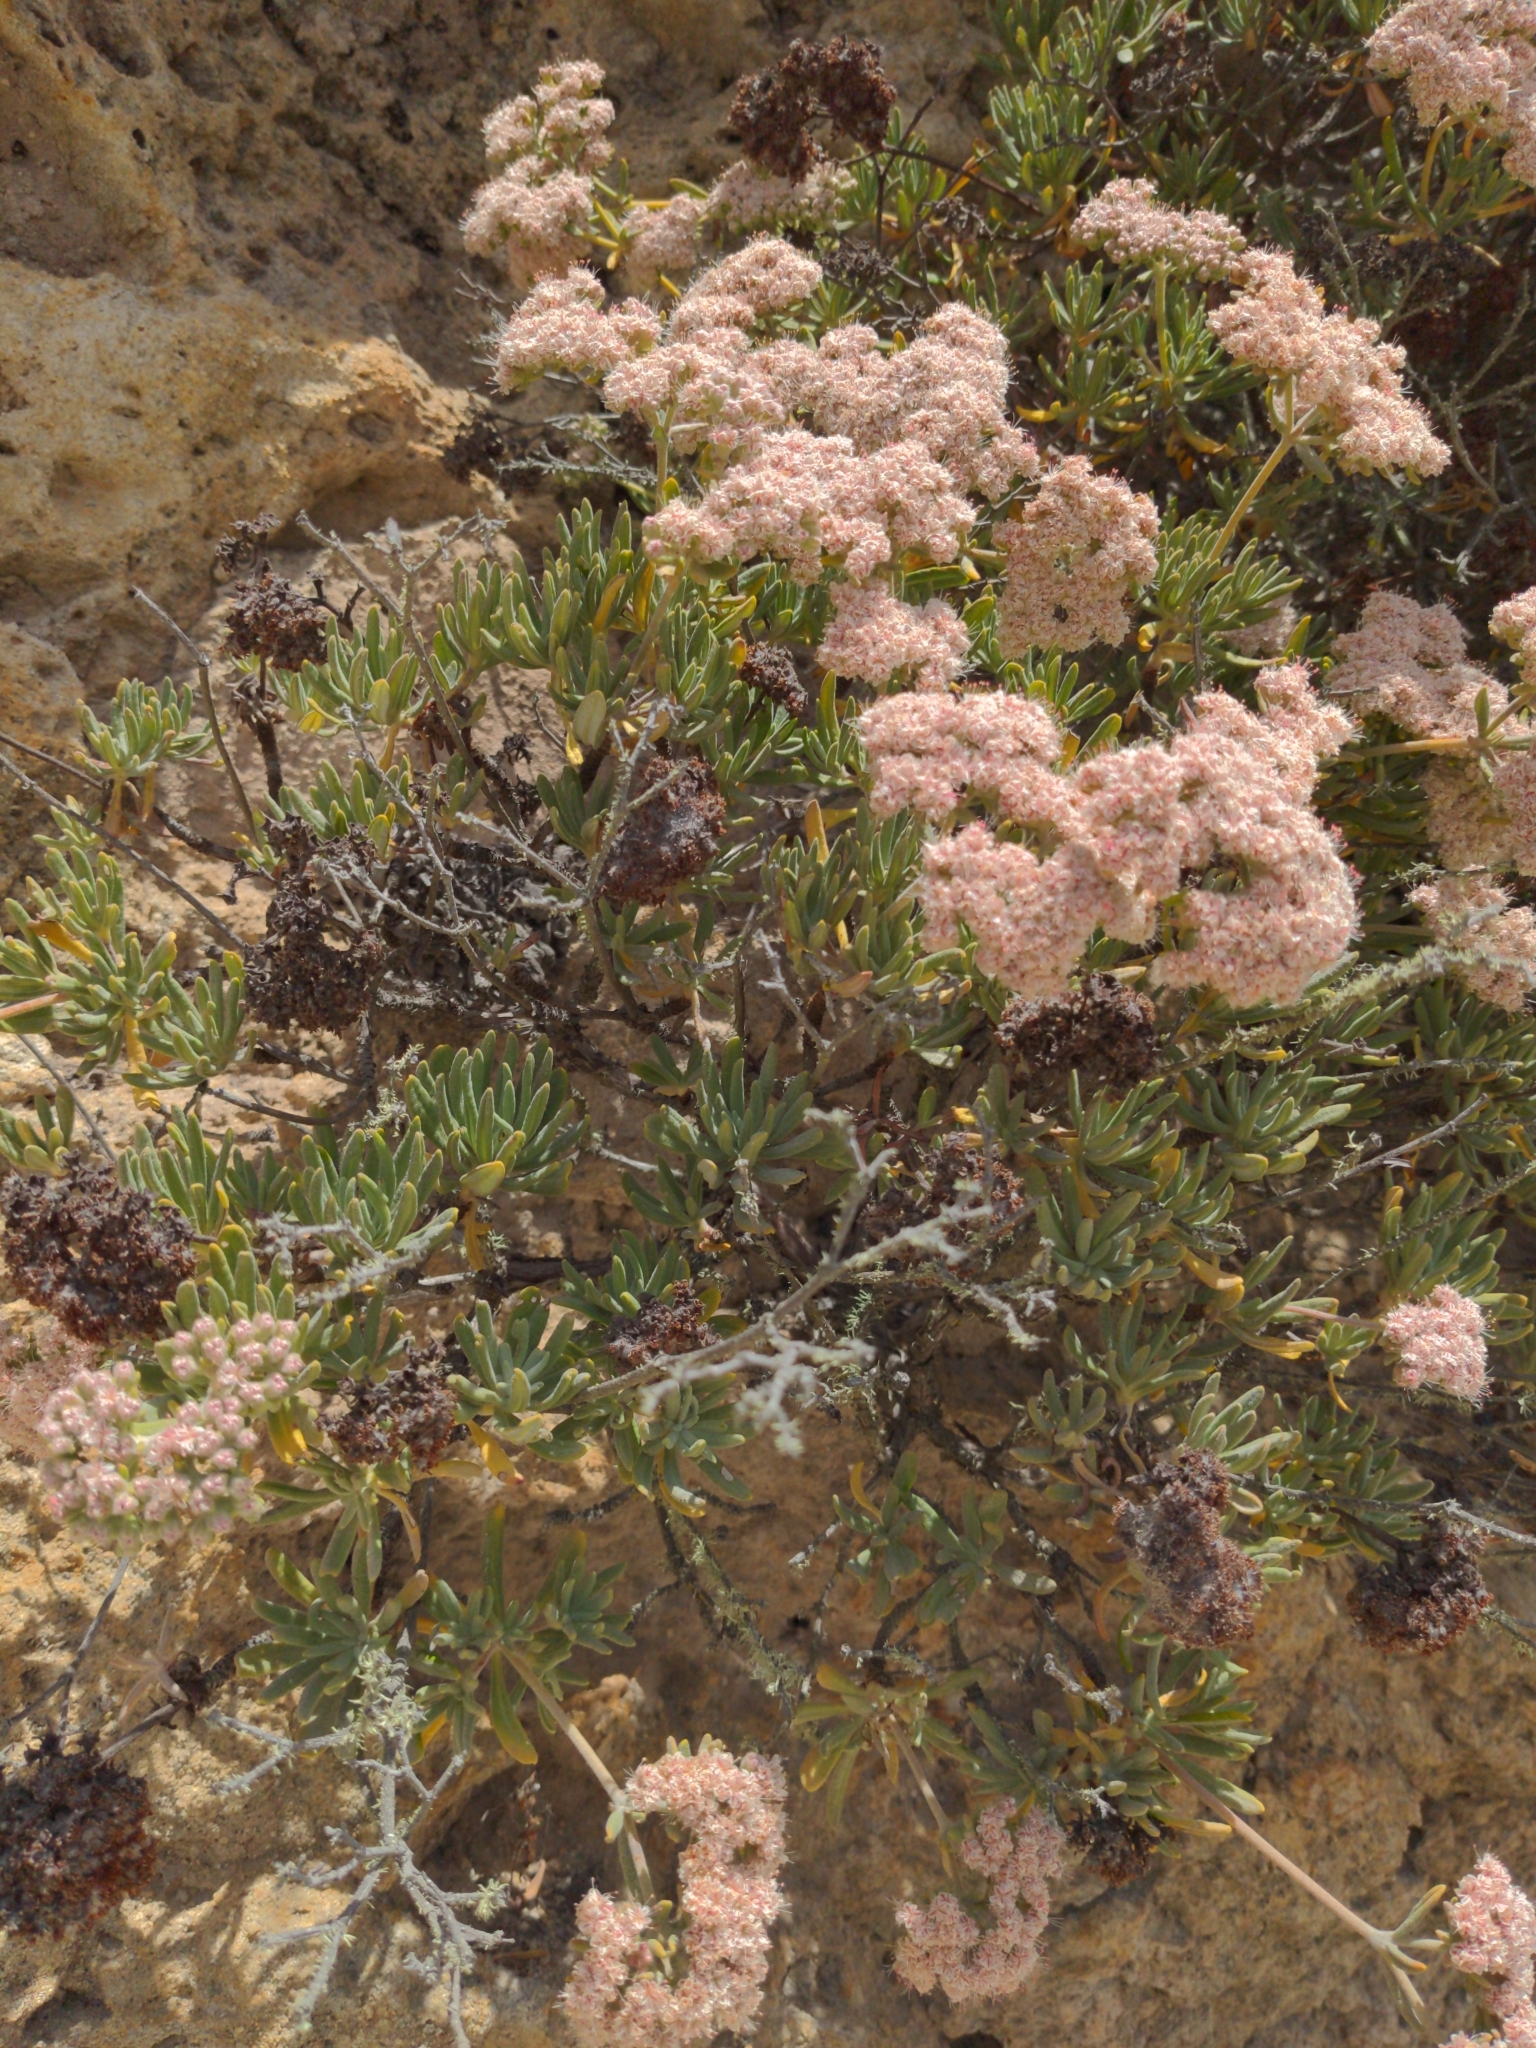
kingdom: Plantae
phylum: Tracheophyta
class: Magnoliopsida
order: Caryophyllales
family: Polygonaceae
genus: Eriogonum
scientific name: Eriogonum arborescens
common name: Island buckwheat
